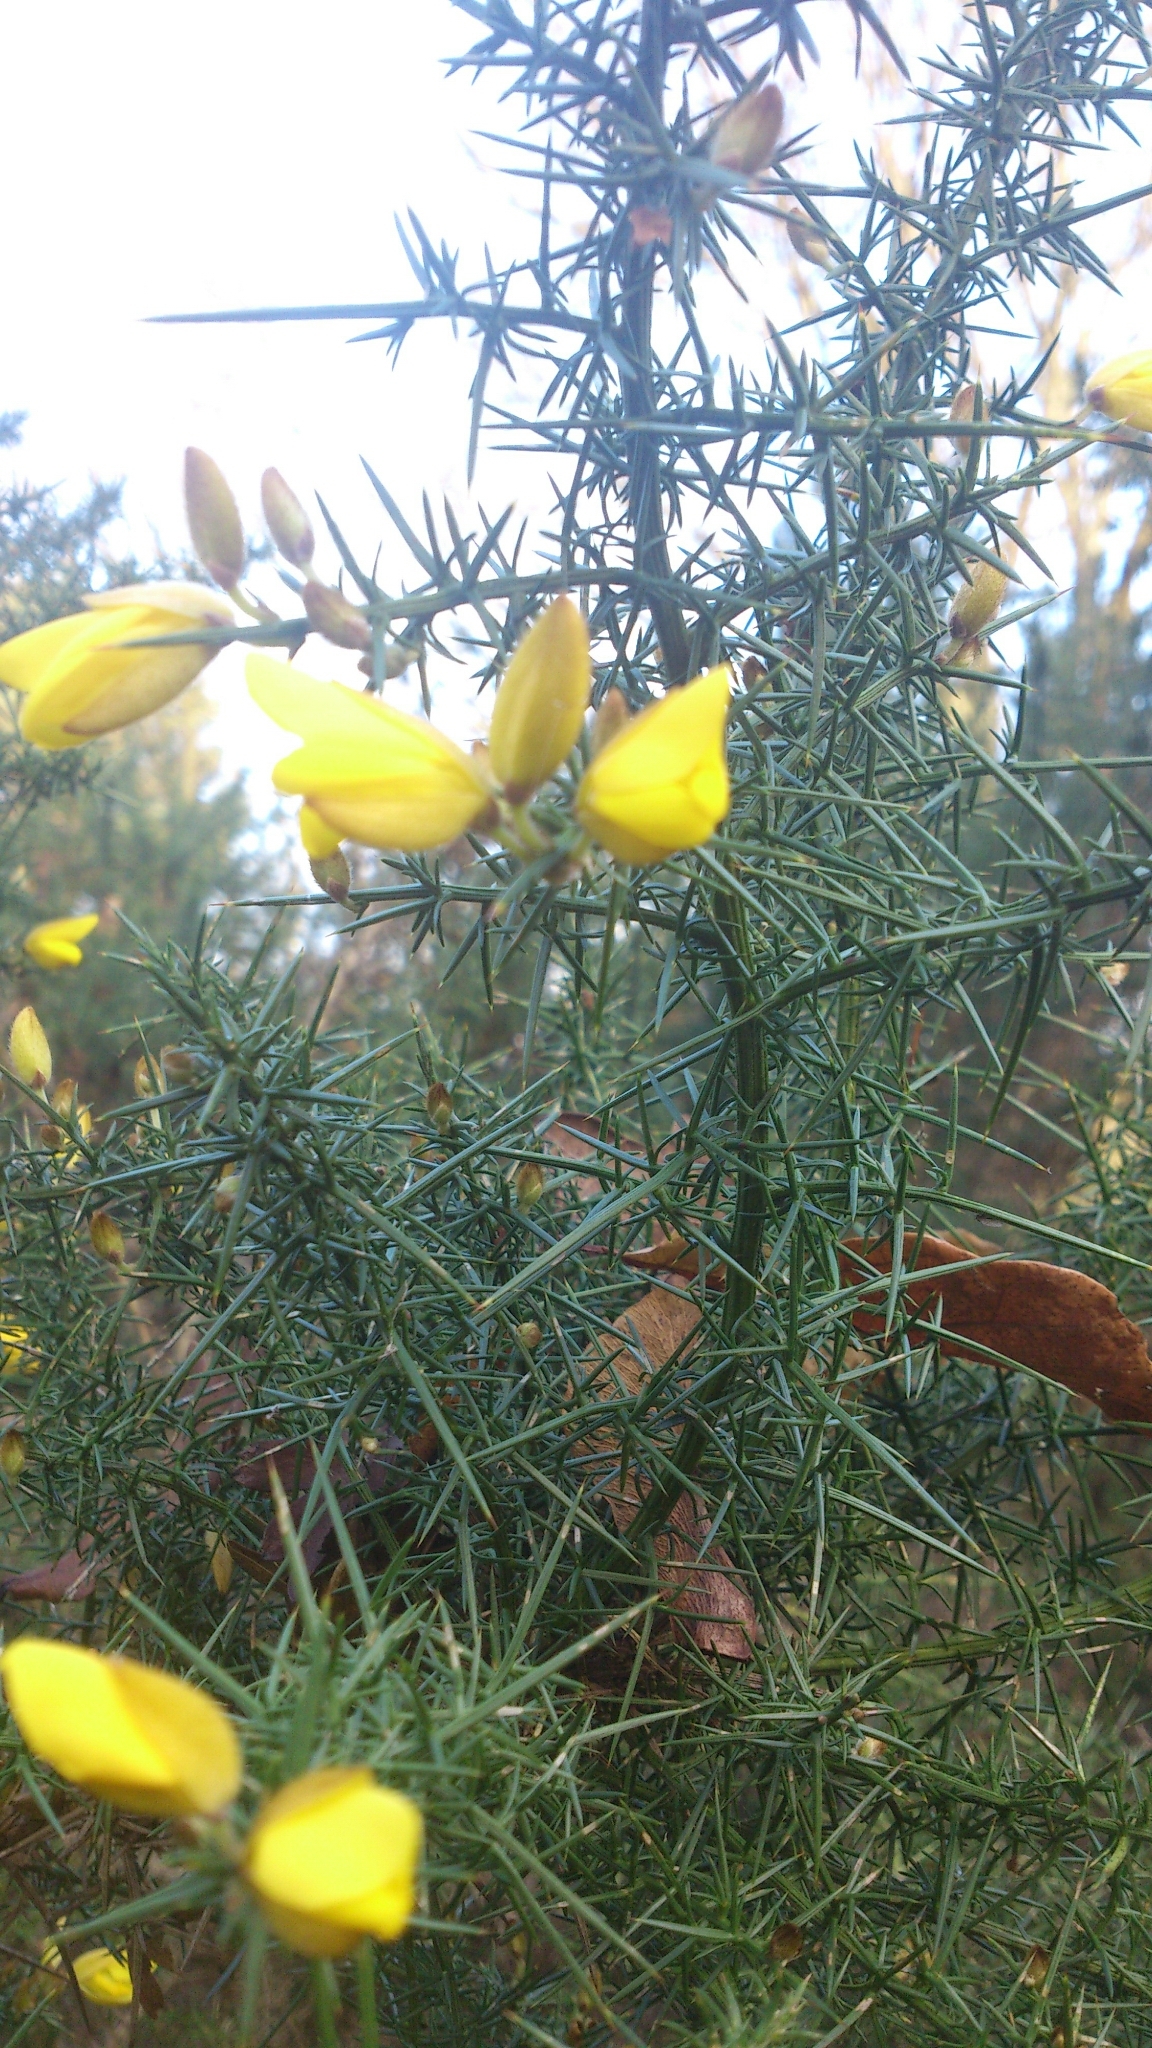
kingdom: Plantae
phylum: Tracheophyta
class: Magnoliopsida
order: Fabales
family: Fabaceae
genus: Ulex
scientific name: Ulex europaeus
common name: Common gorse
